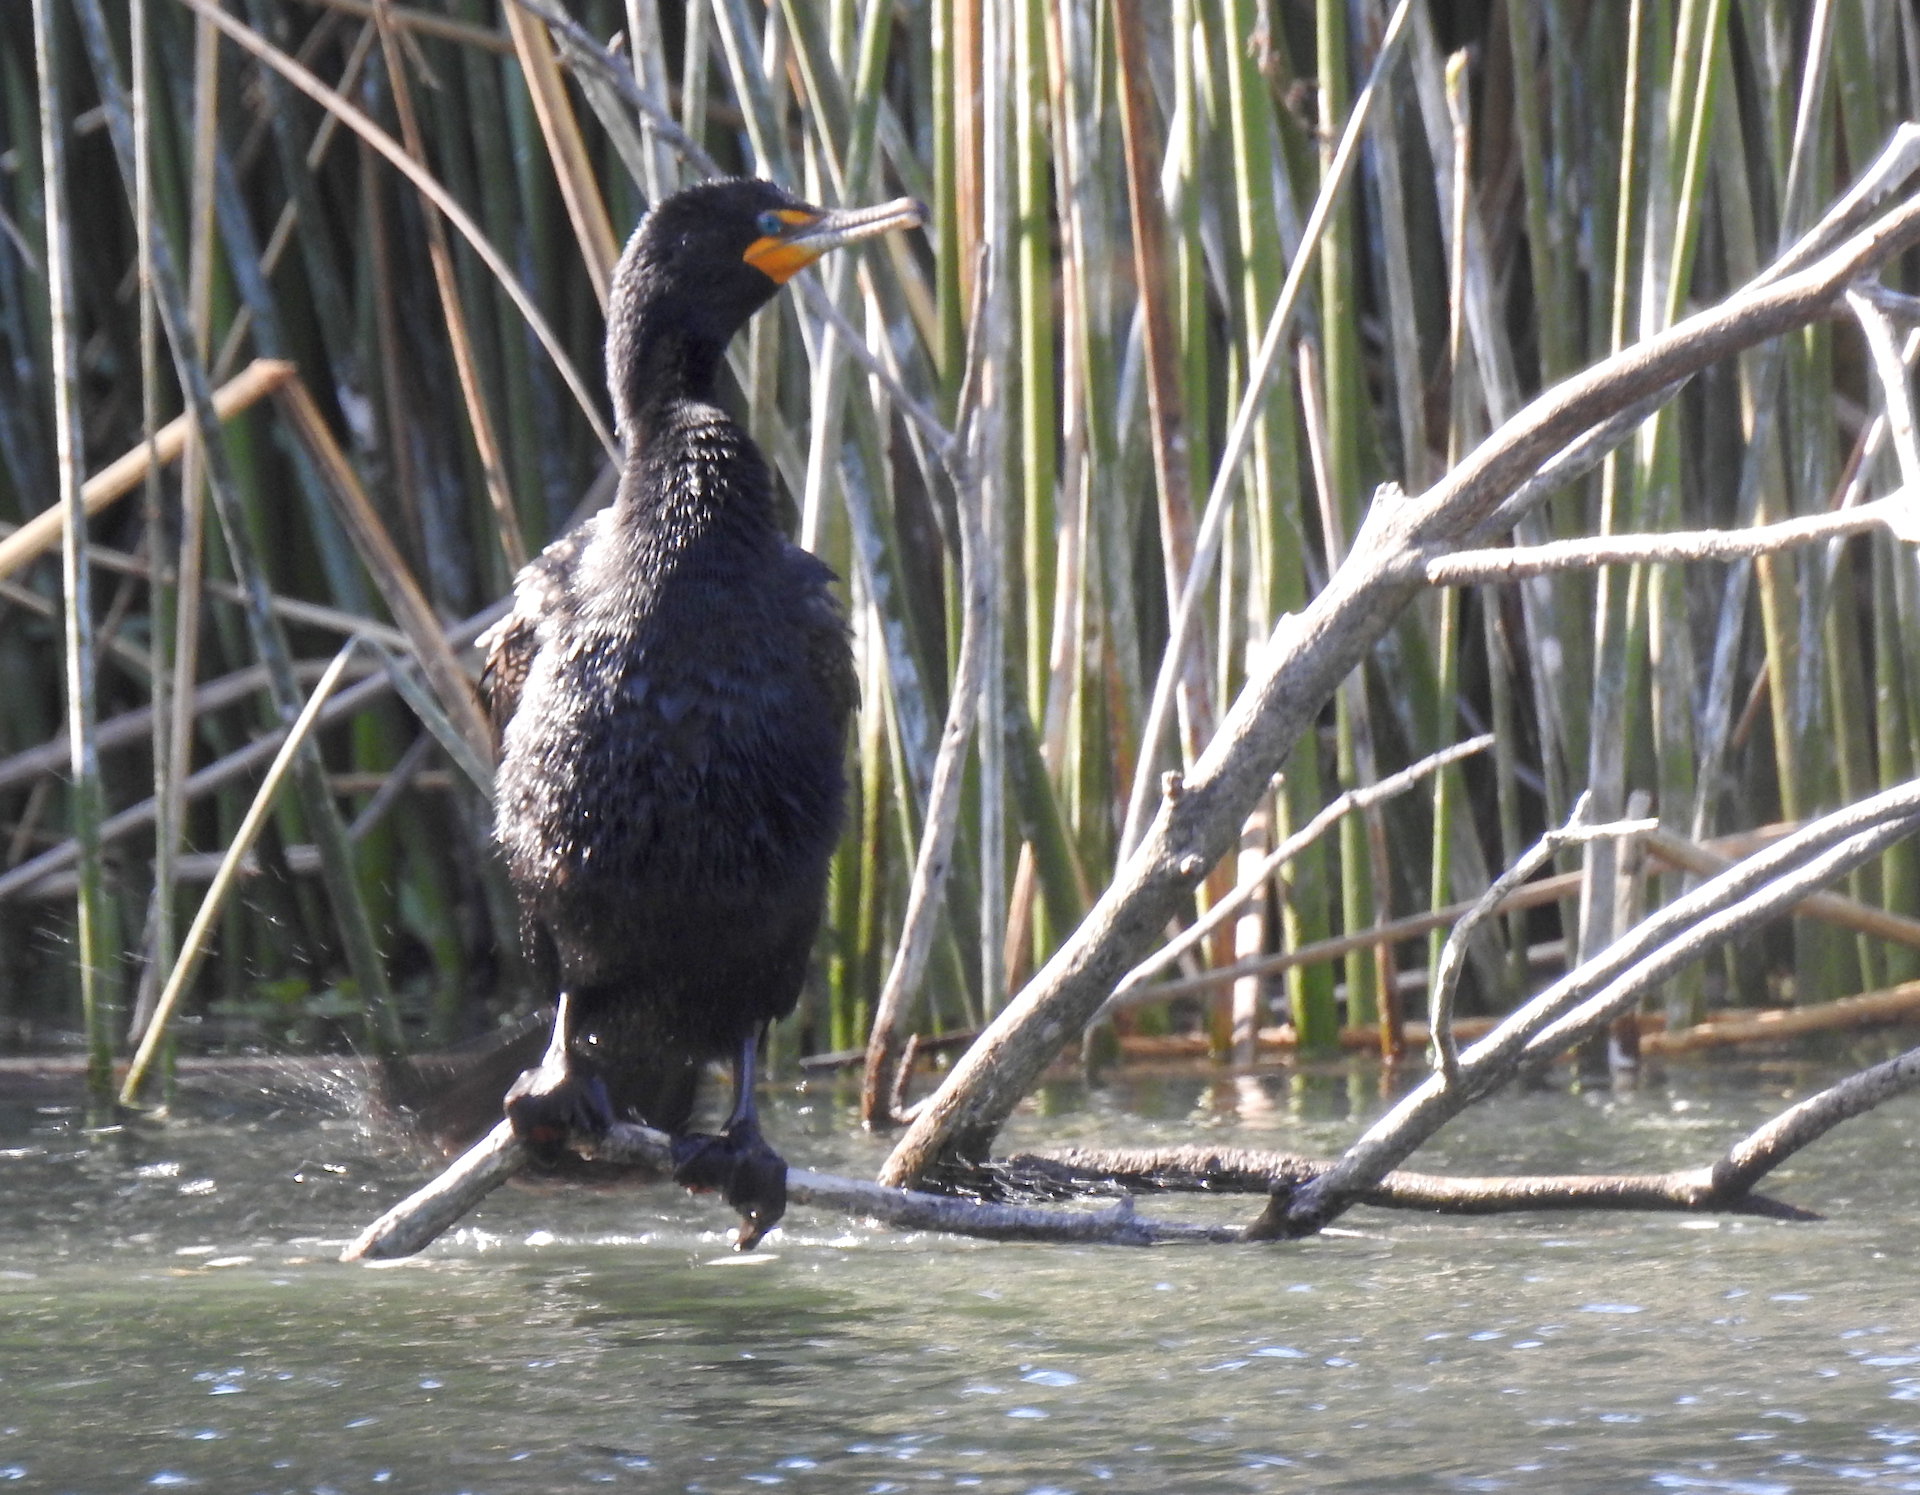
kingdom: Animalia
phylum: Chordata
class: Aves
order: Suliformes
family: Phalacrocoracidae
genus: Phalacrocorax
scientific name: Phalacrocorax auritus
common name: Double-crested cormorant
